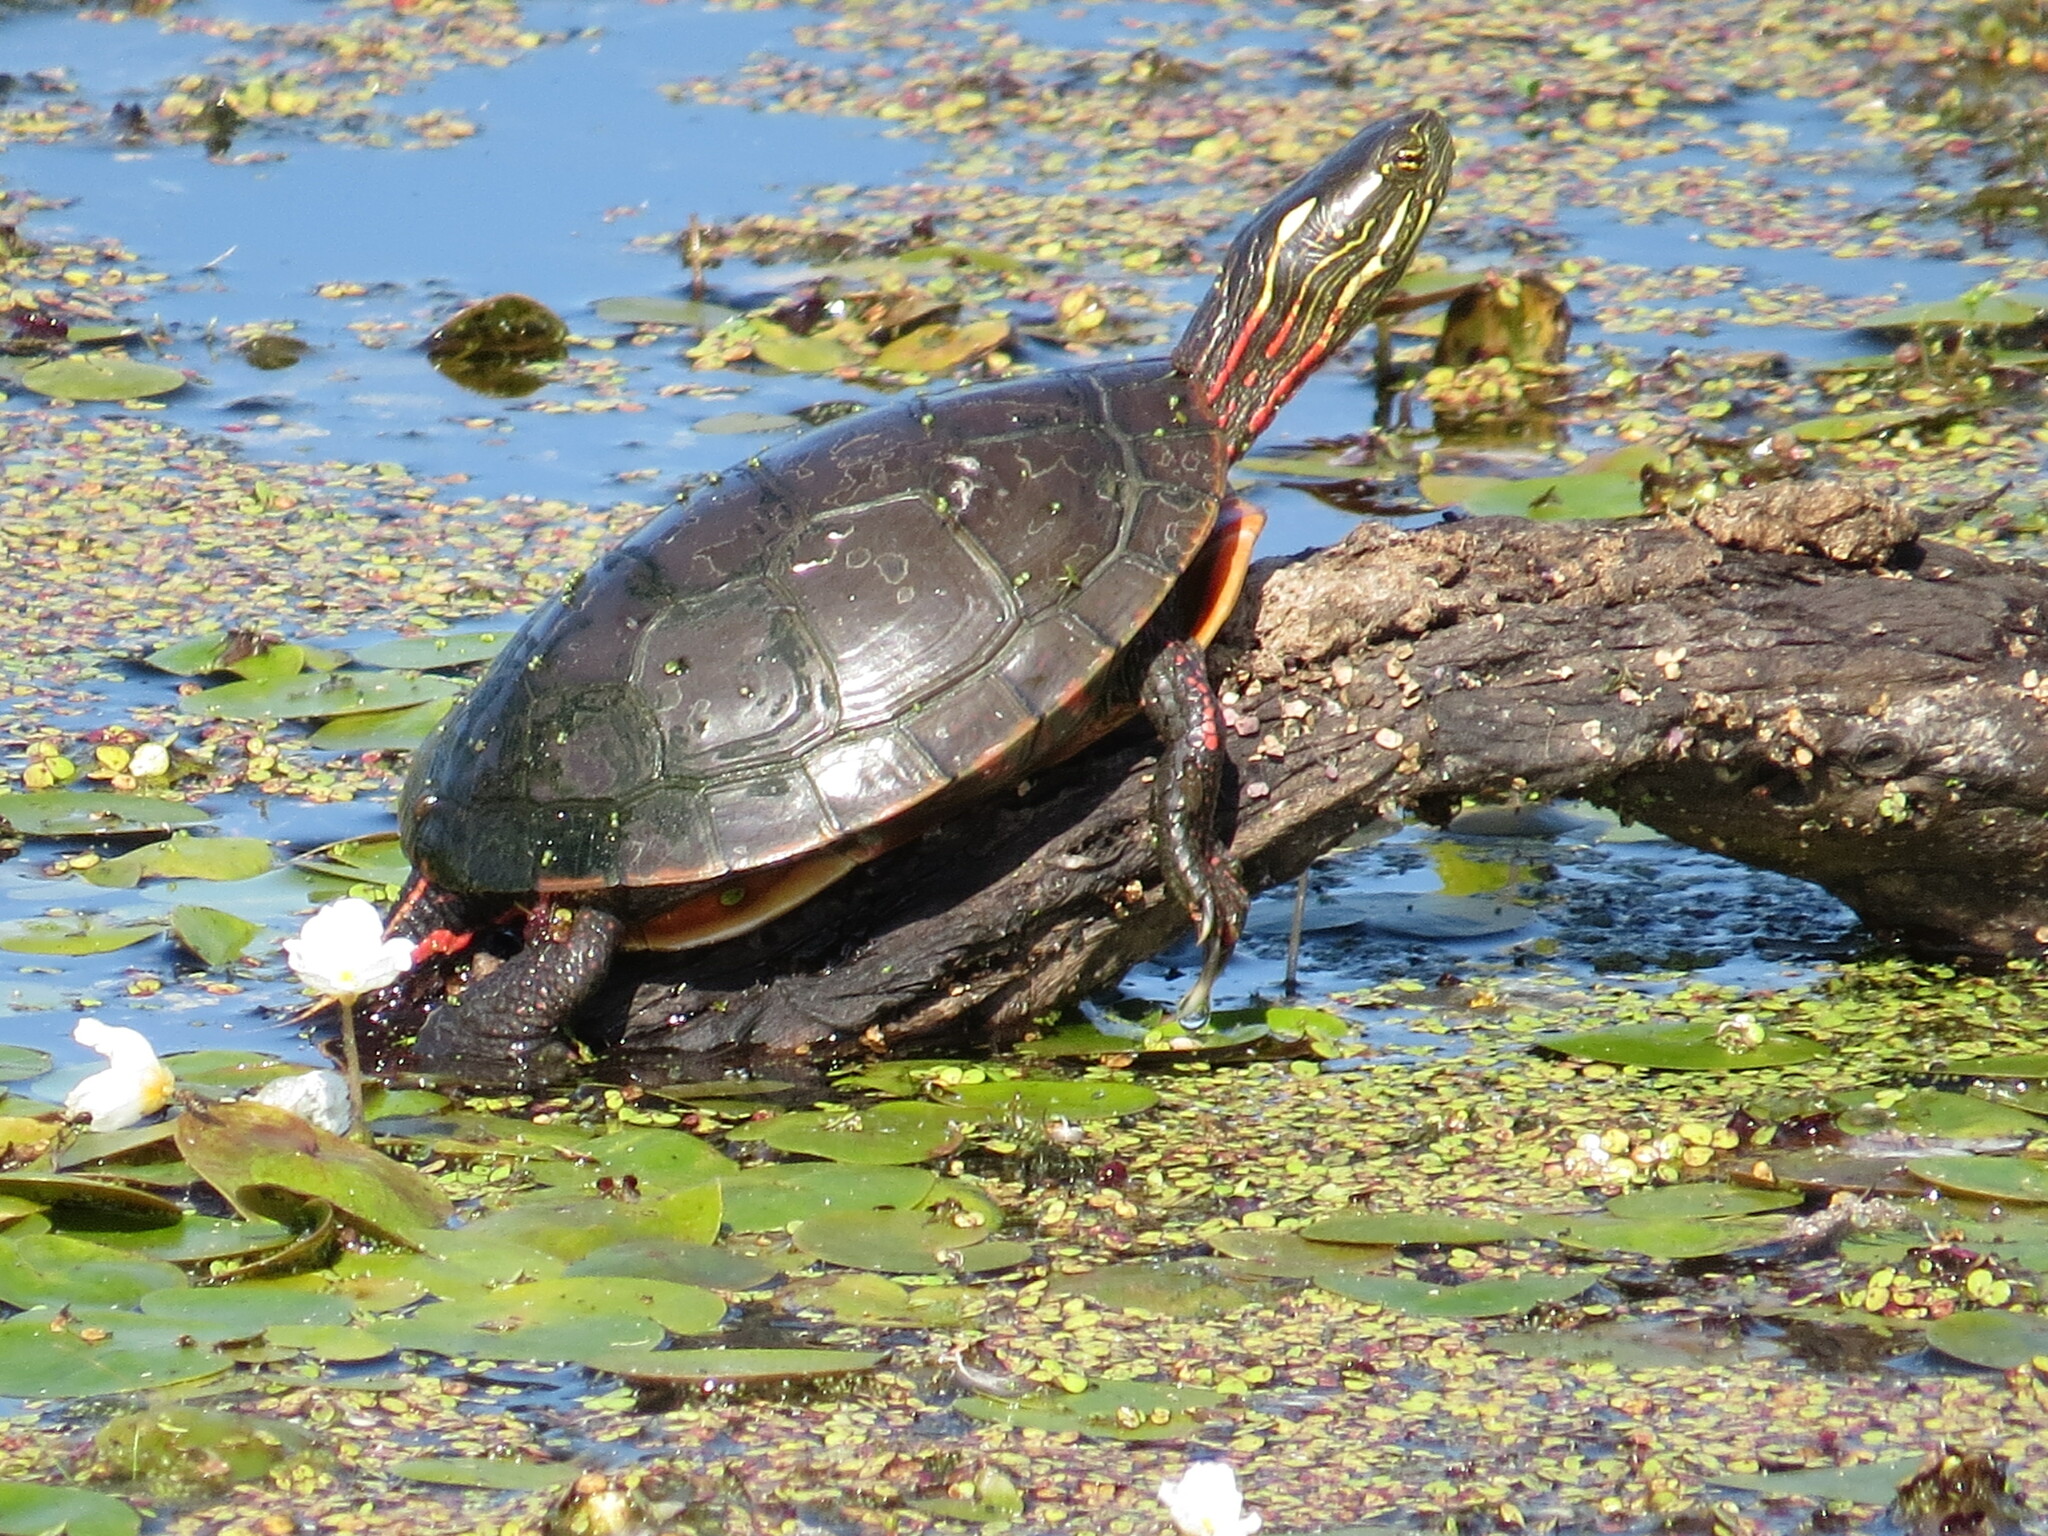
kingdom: Animalia
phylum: Chordata
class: Testudines
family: Emydidae
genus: Chrysemys
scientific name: Chrysemys picta
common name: Painted turtle
